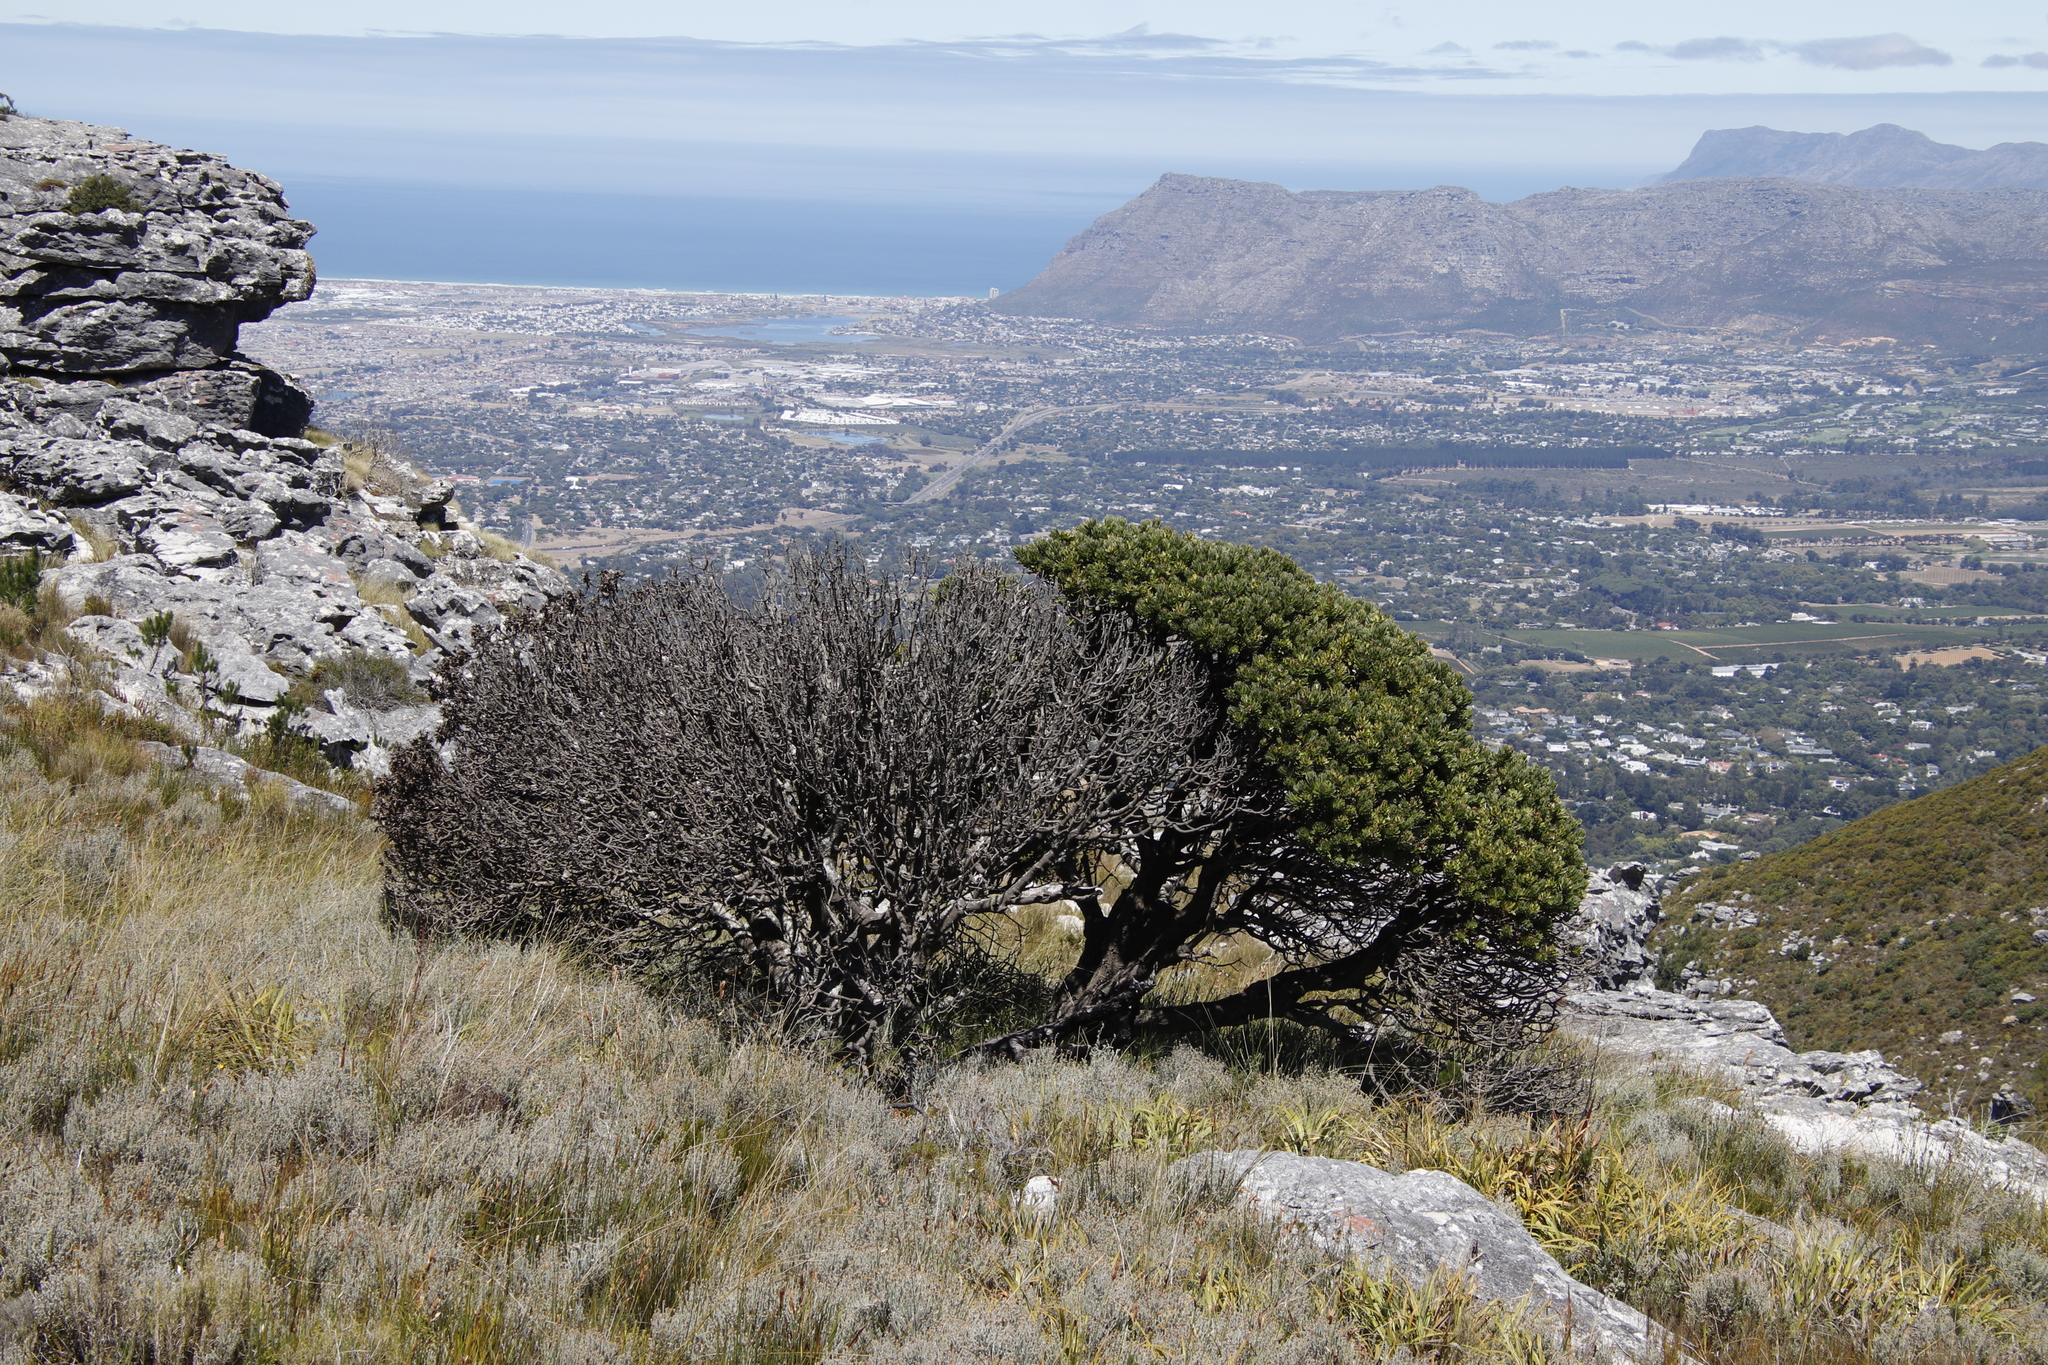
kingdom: Plantae
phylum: Tracheophyta
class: Magnoliopsida
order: Proteales
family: Proteaceae
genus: Mimetes
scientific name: Mimetes fimbriifolius
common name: Fringed bottlebrush
